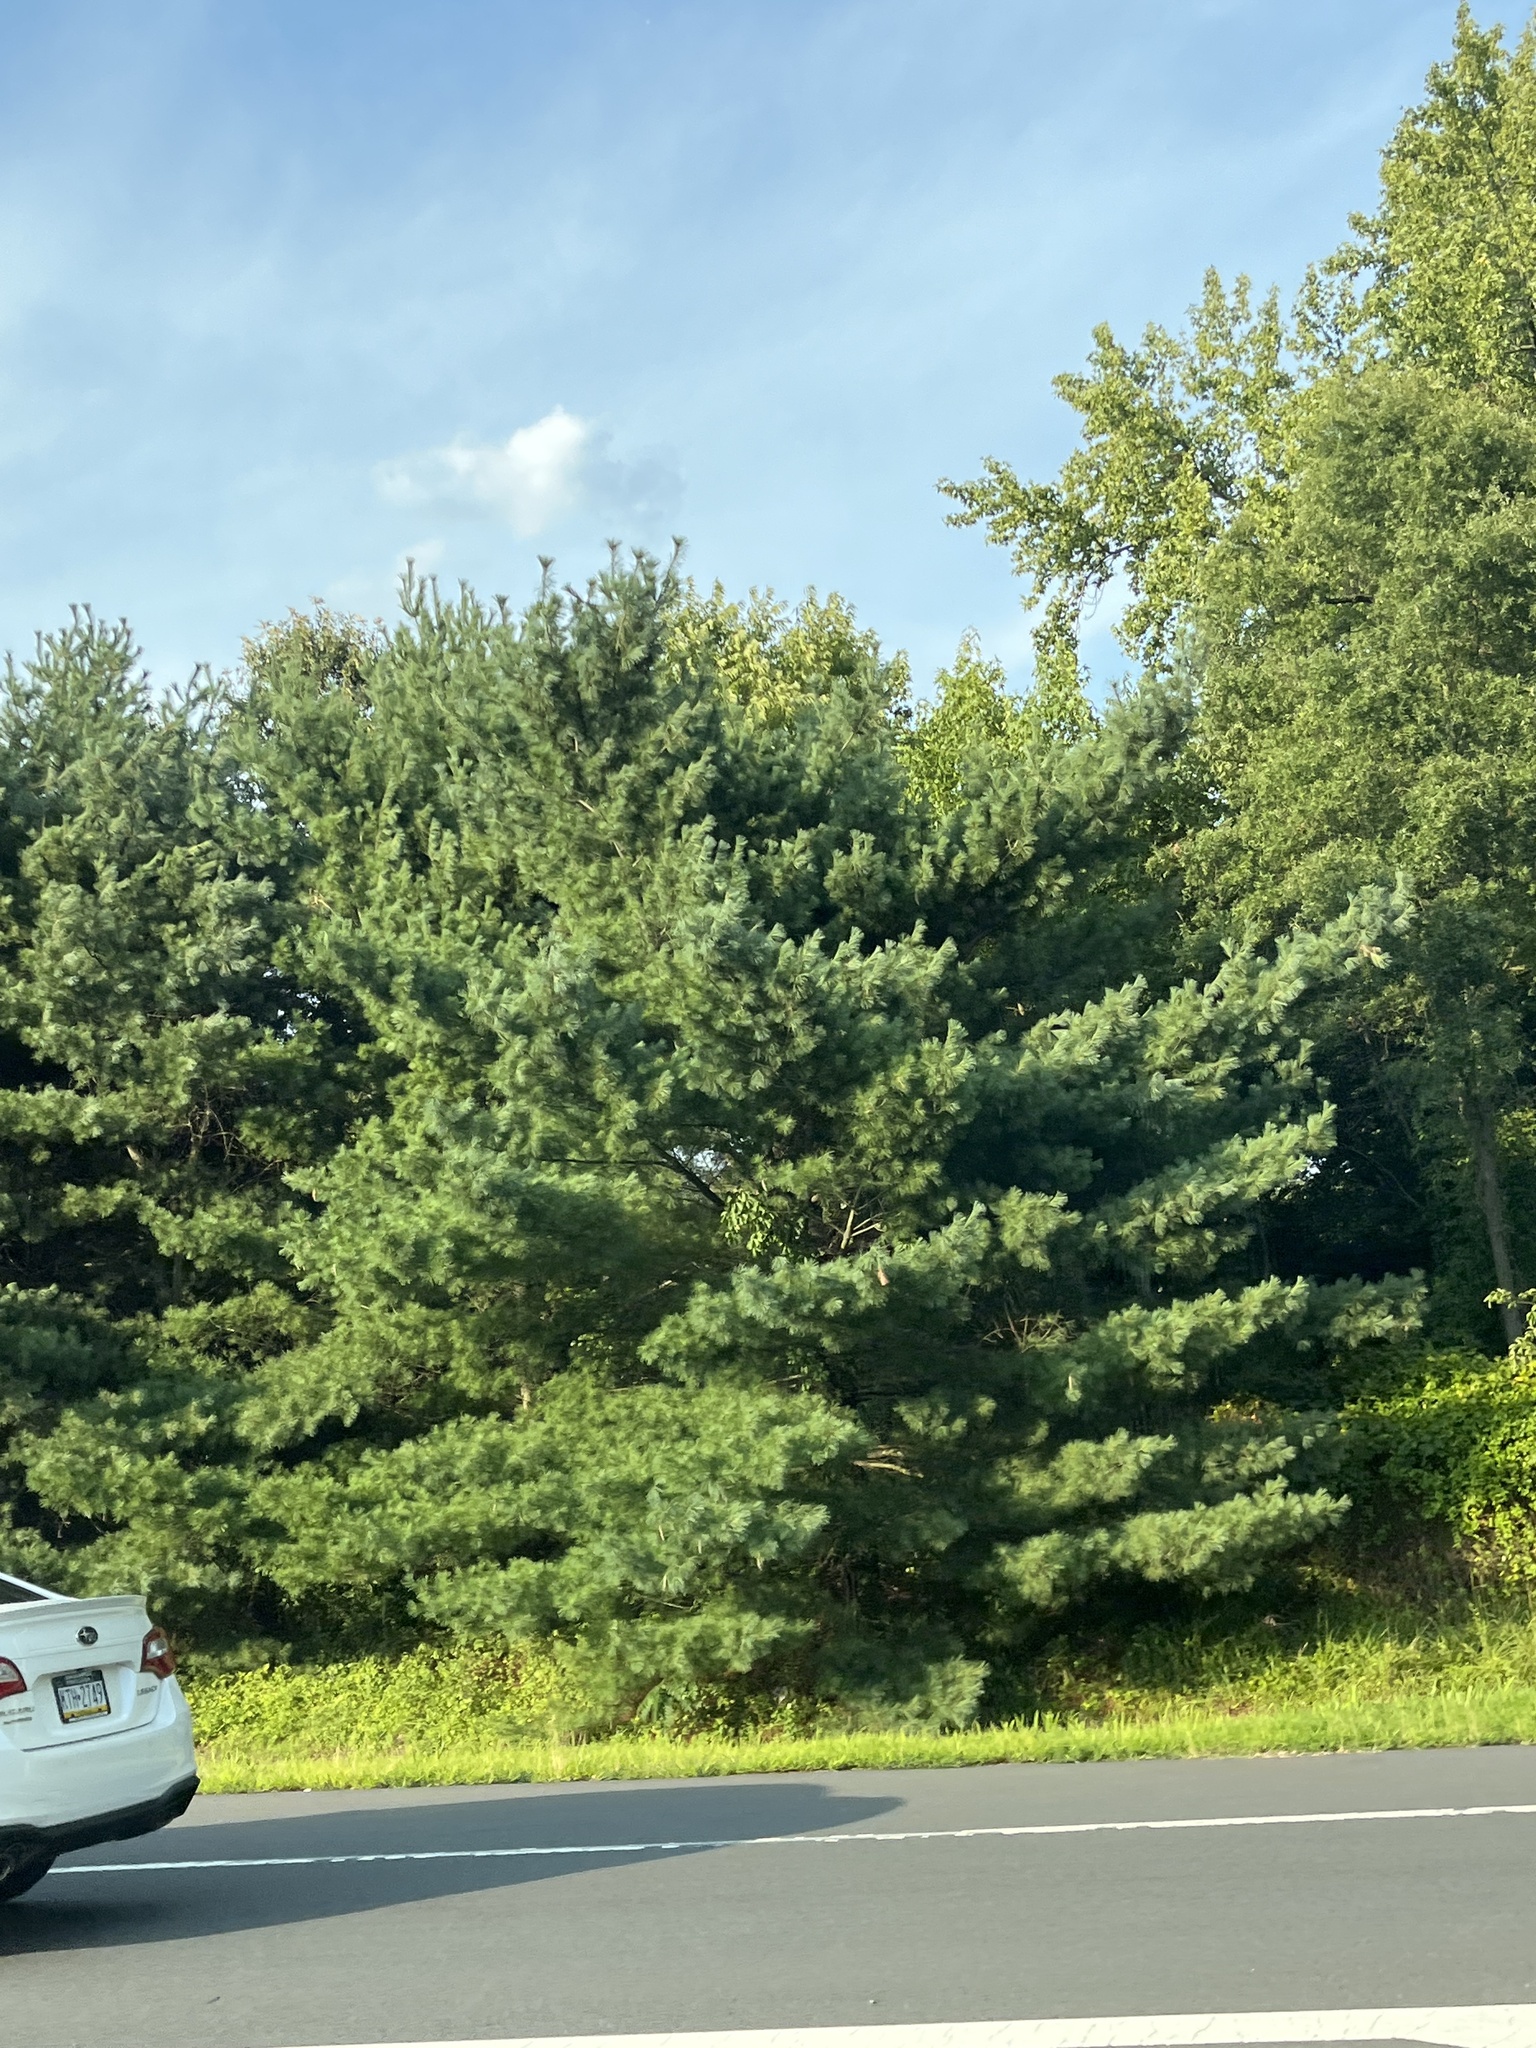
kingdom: Plantae
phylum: Tracheophyta
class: Pinopsida
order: Pinales
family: Pinaceae
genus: Pinus
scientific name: Pinus strobus
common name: Weymouth pine
